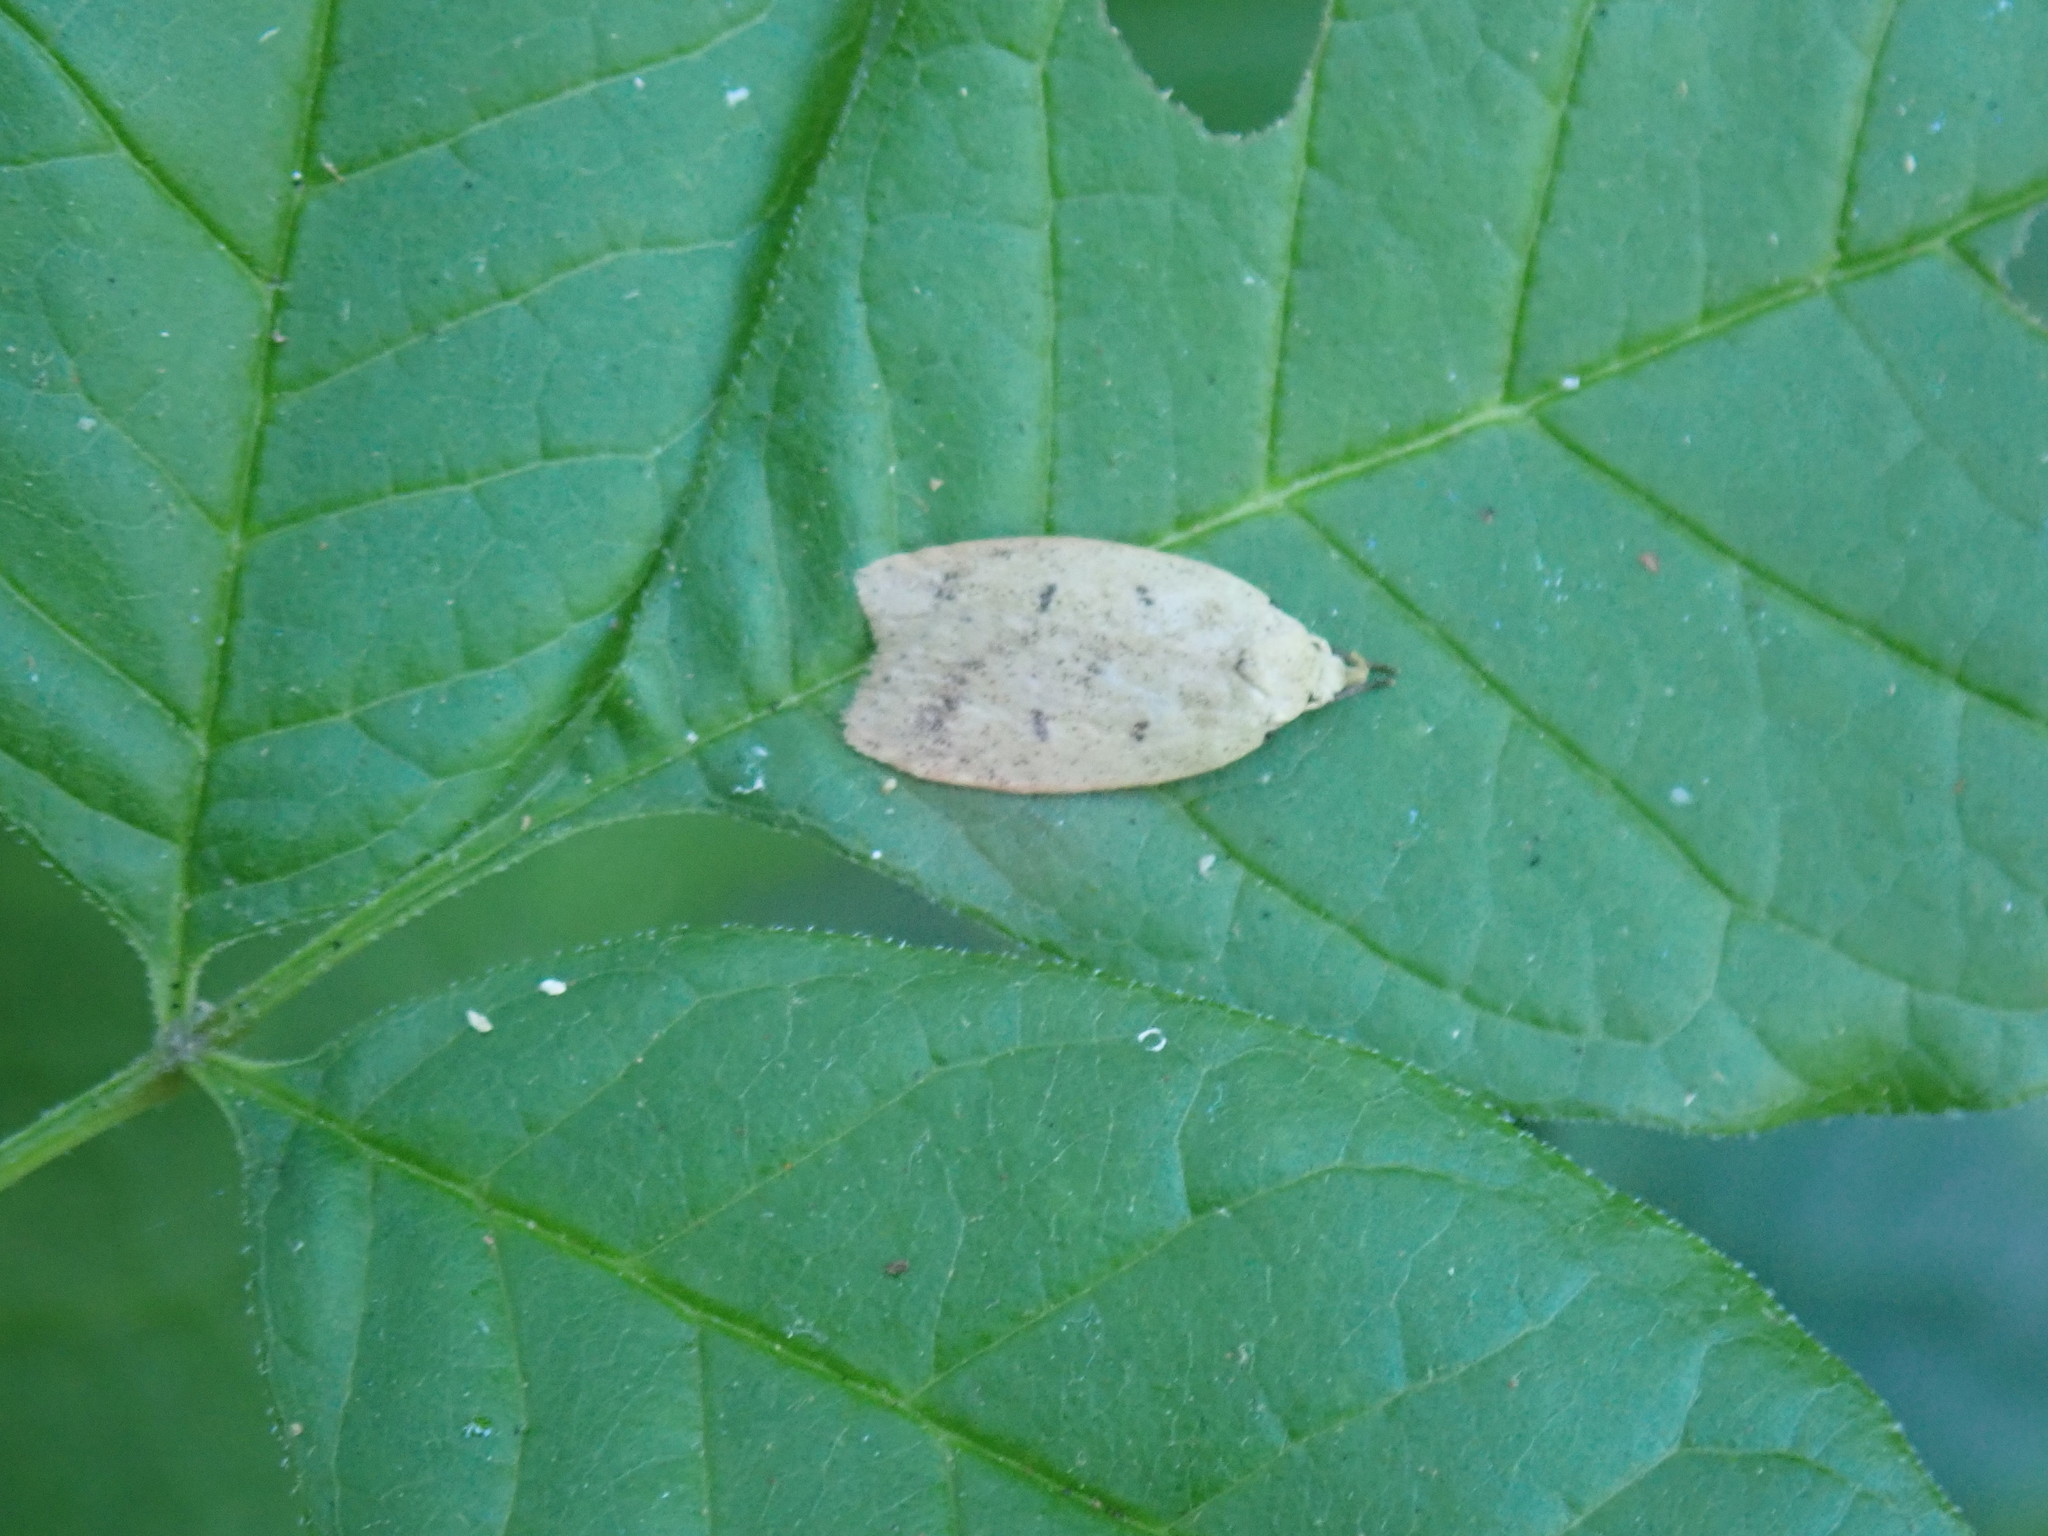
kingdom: Animalia
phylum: Arthropoda
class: Insecta
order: Lepidoptera
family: Peleopodidae
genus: Machimia
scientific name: Machimia tentoriferella
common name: Gold-striped leaftier moth
